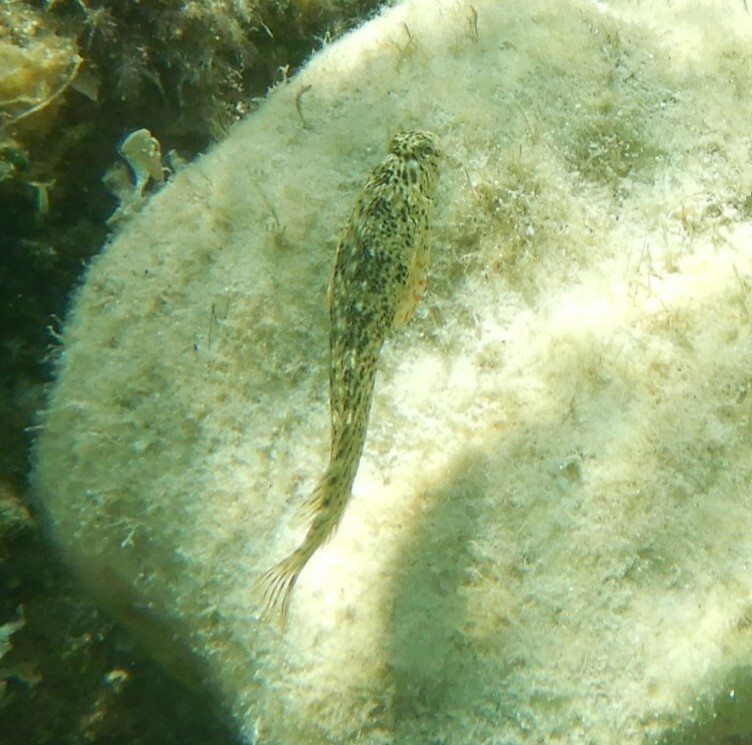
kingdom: Animalia
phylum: Chordata
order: Perciformes
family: Blenniidae
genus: Parablennius
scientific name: Parablennius sanguinolentus
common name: Black sea blenny
